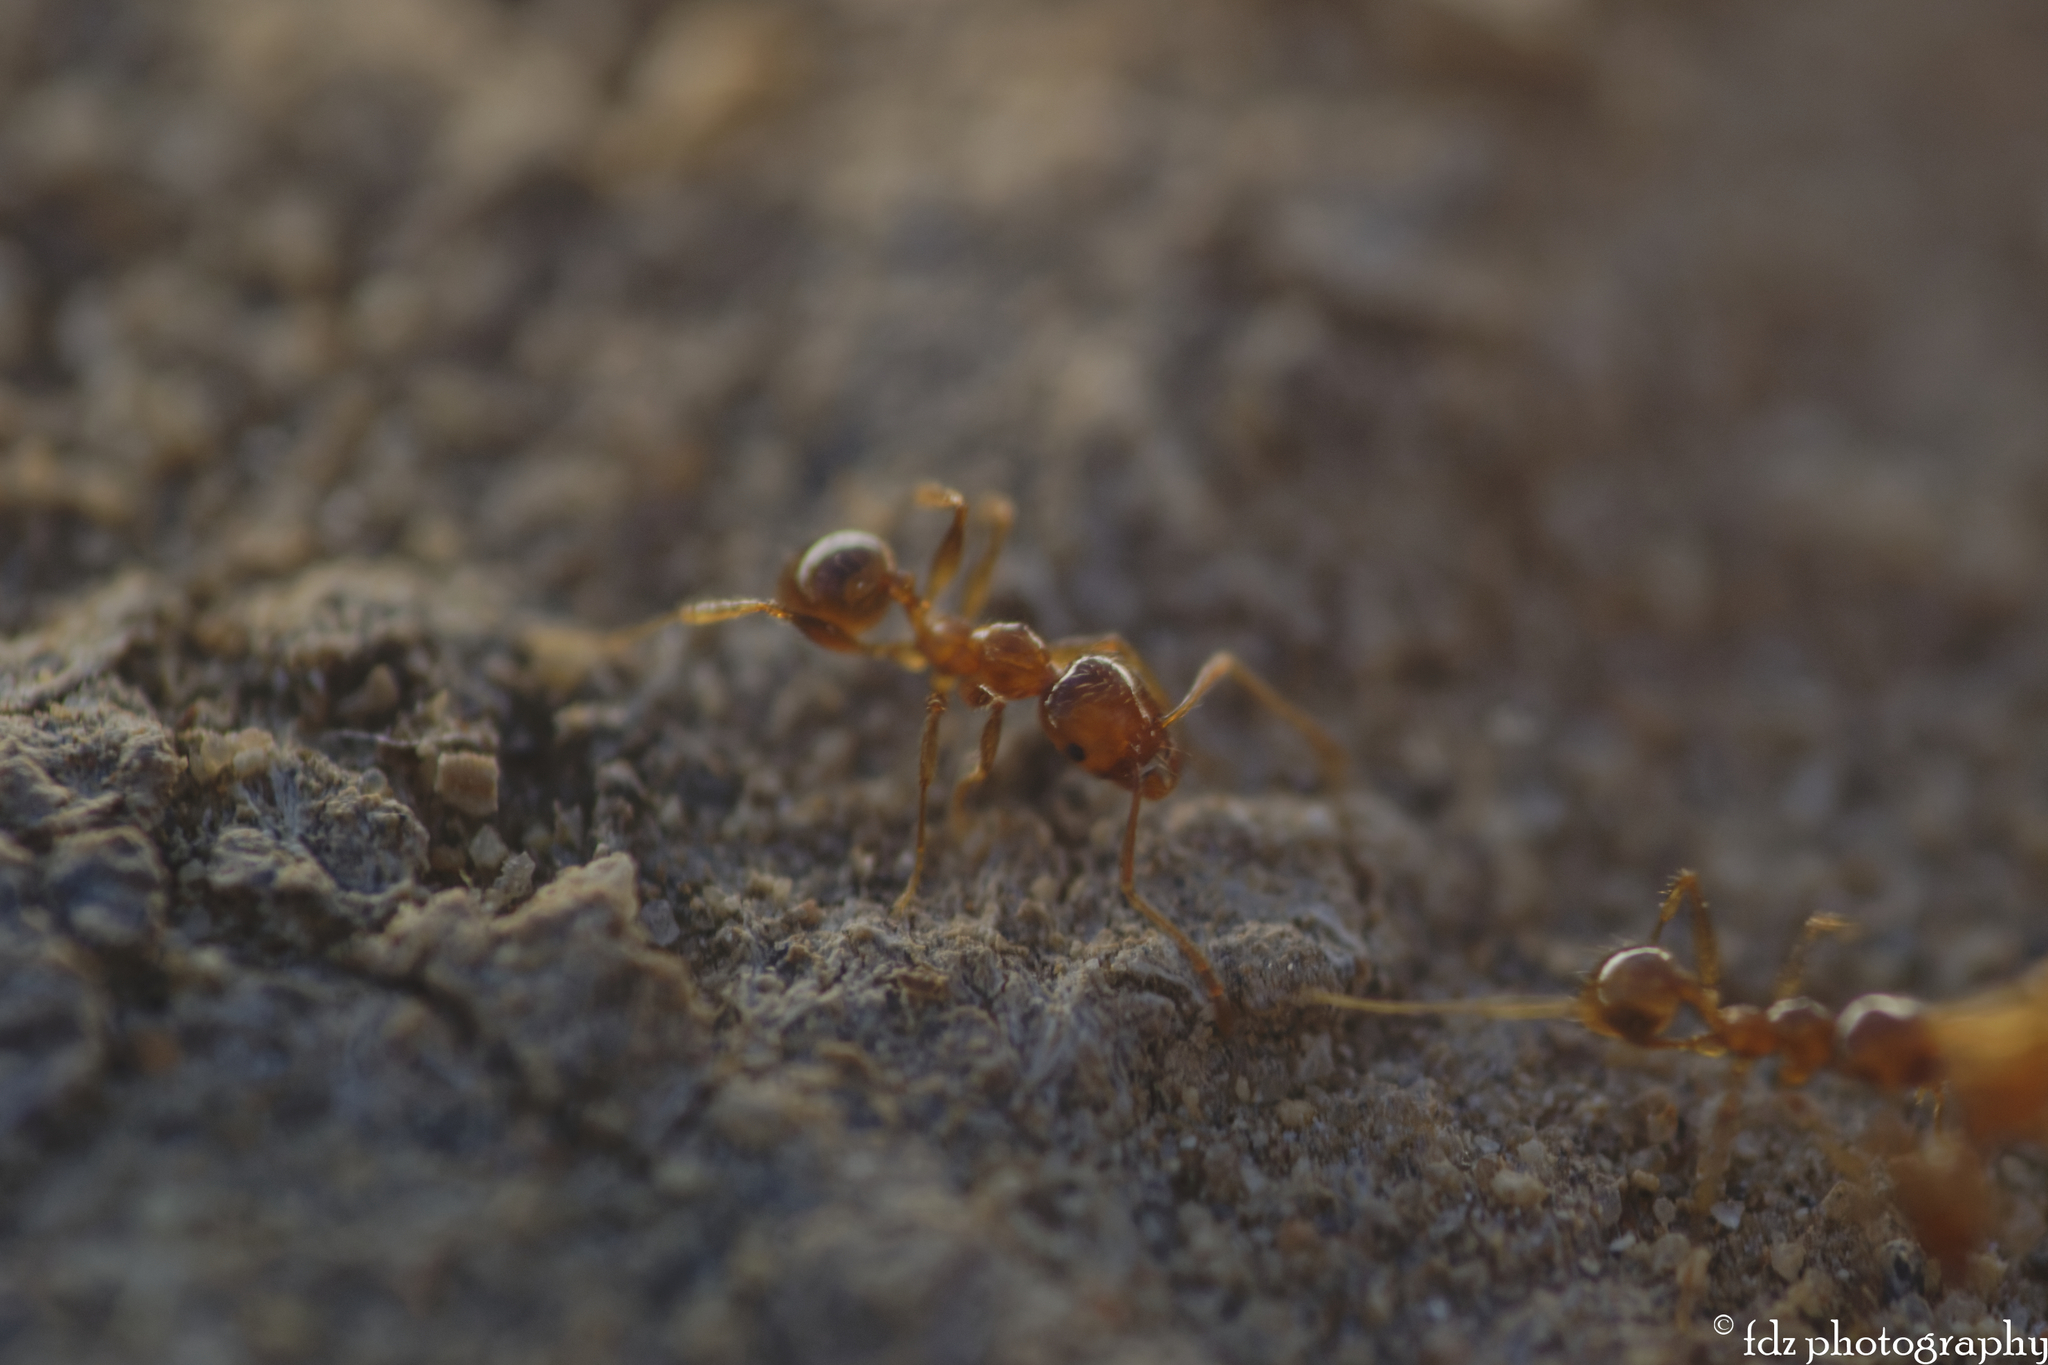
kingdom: Animalia
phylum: Arthropoda
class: Insecta
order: Hymenoptera
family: Formicidae
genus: Pheidole
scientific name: Pheidole pallidula
